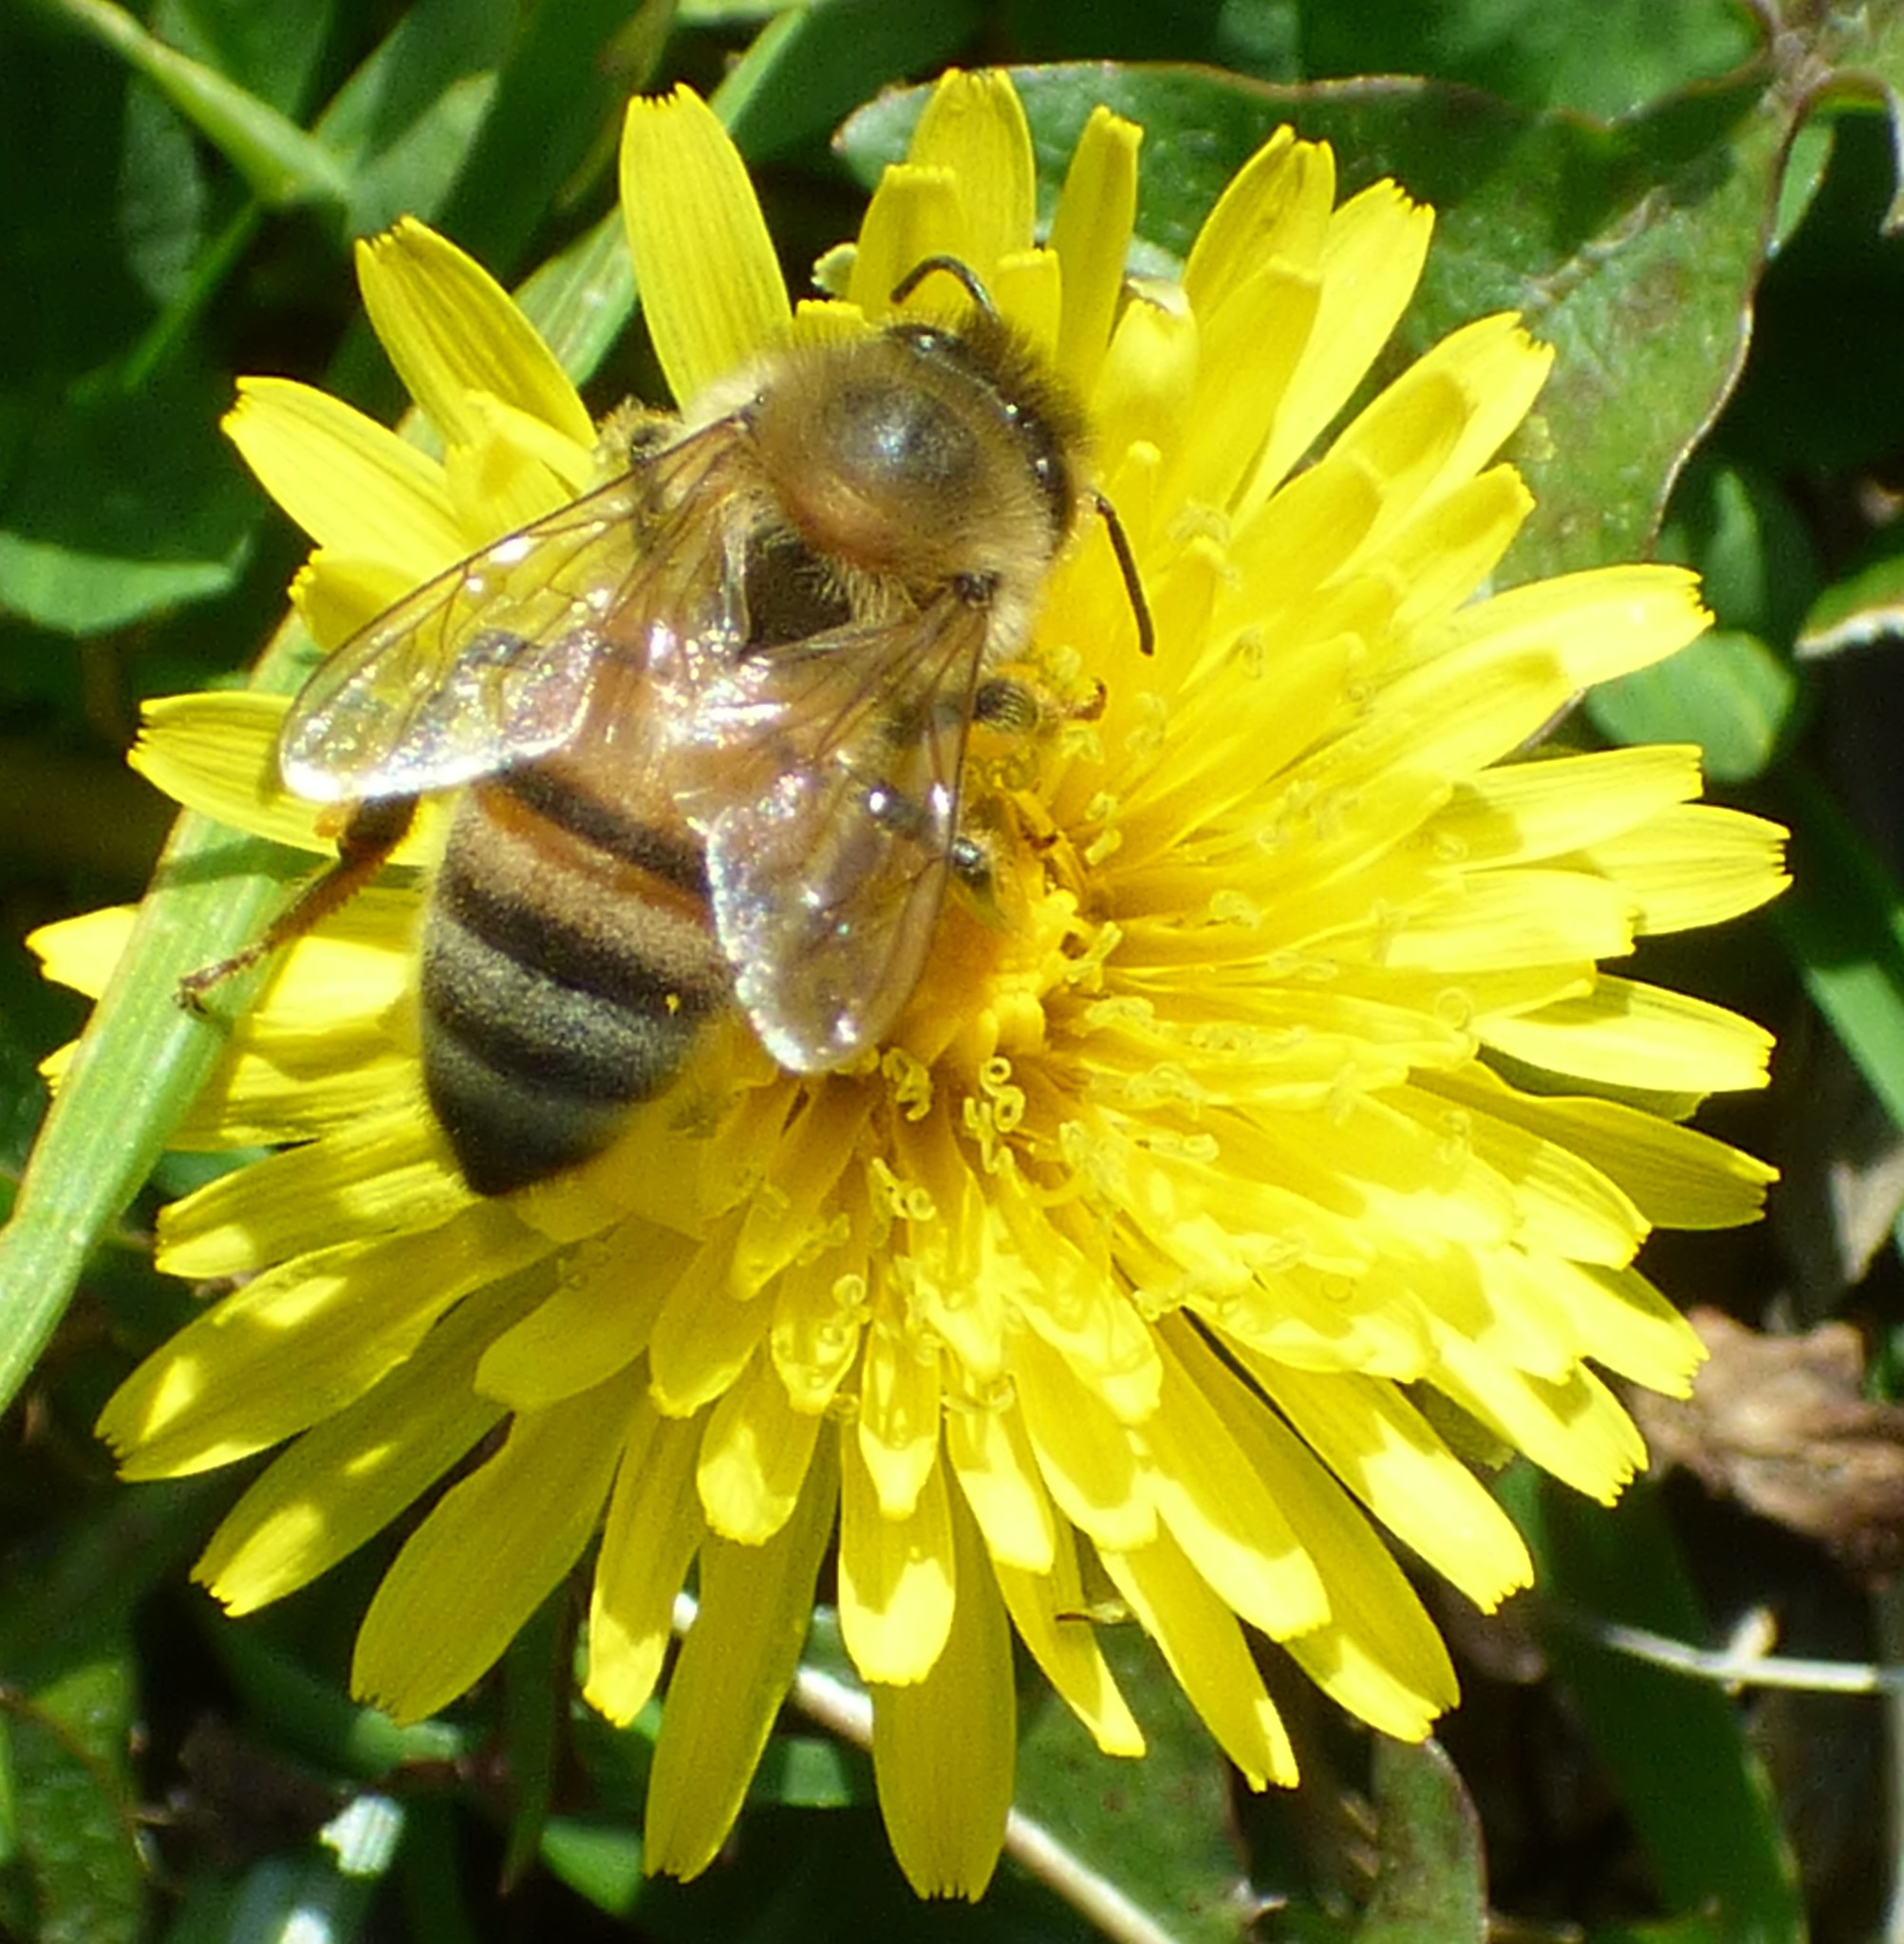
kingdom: Animalia
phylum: Arthropoda
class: Insecta
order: Hymenoptera
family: Apidae
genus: Apis
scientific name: Apis mellifera
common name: Honey bee
